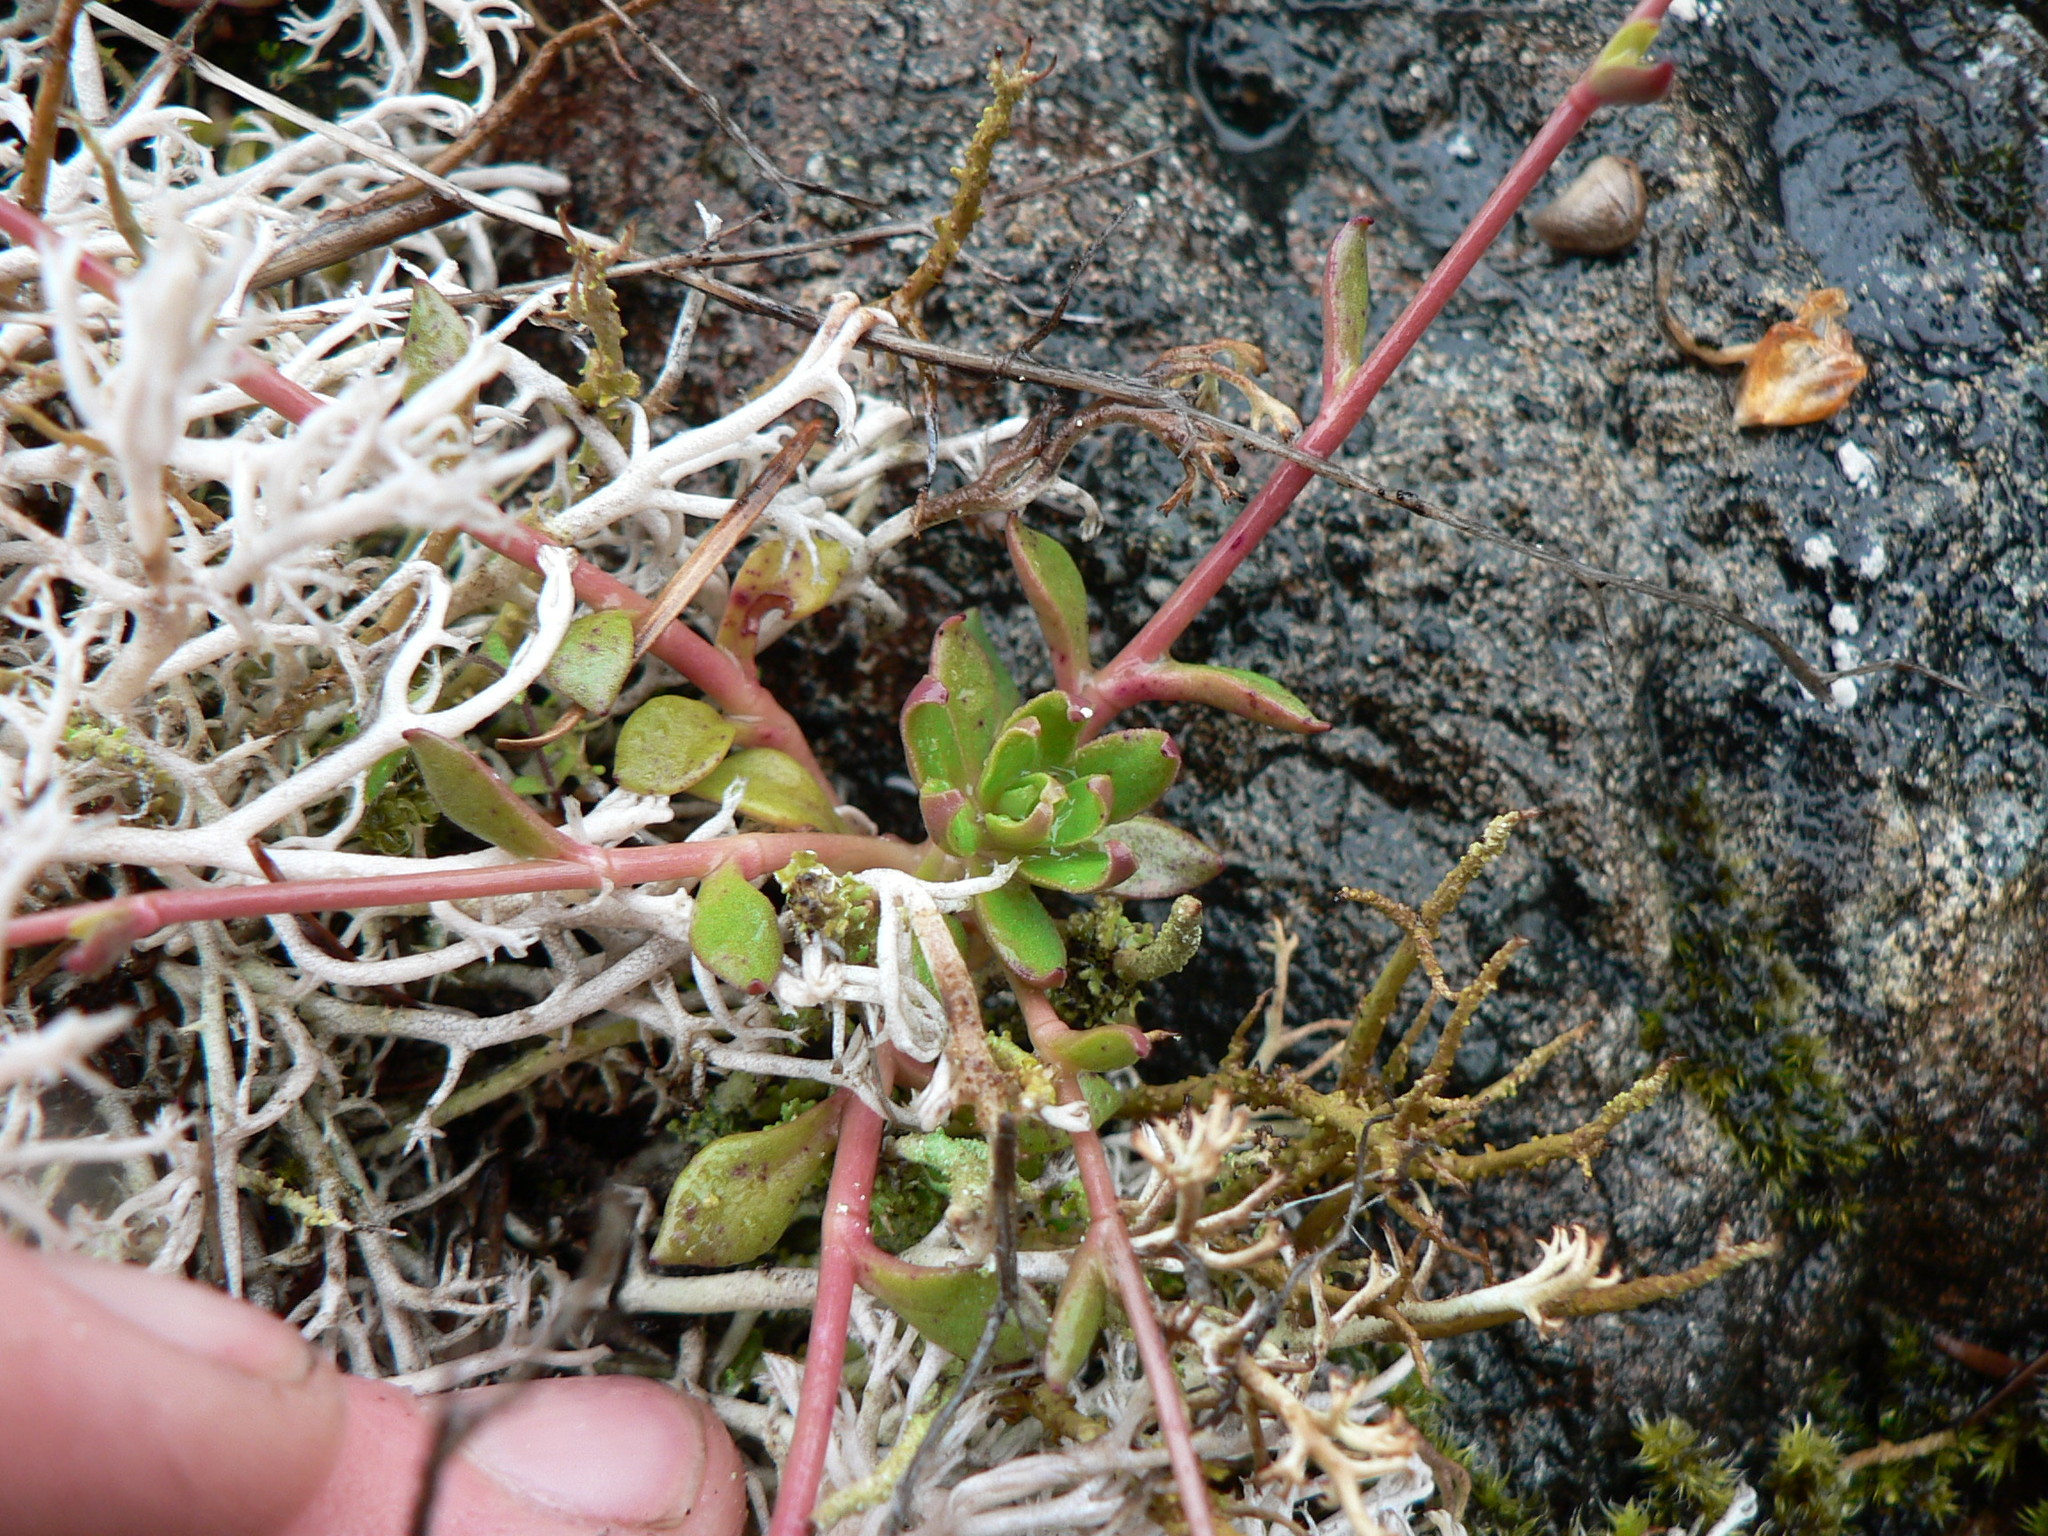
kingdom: Plantae
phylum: Tracheophyta
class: Magnoliopsida
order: Caryophyllales
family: Montiaceae
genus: Montia
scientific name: Montia parvifolia
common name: Small-leaved blinks
